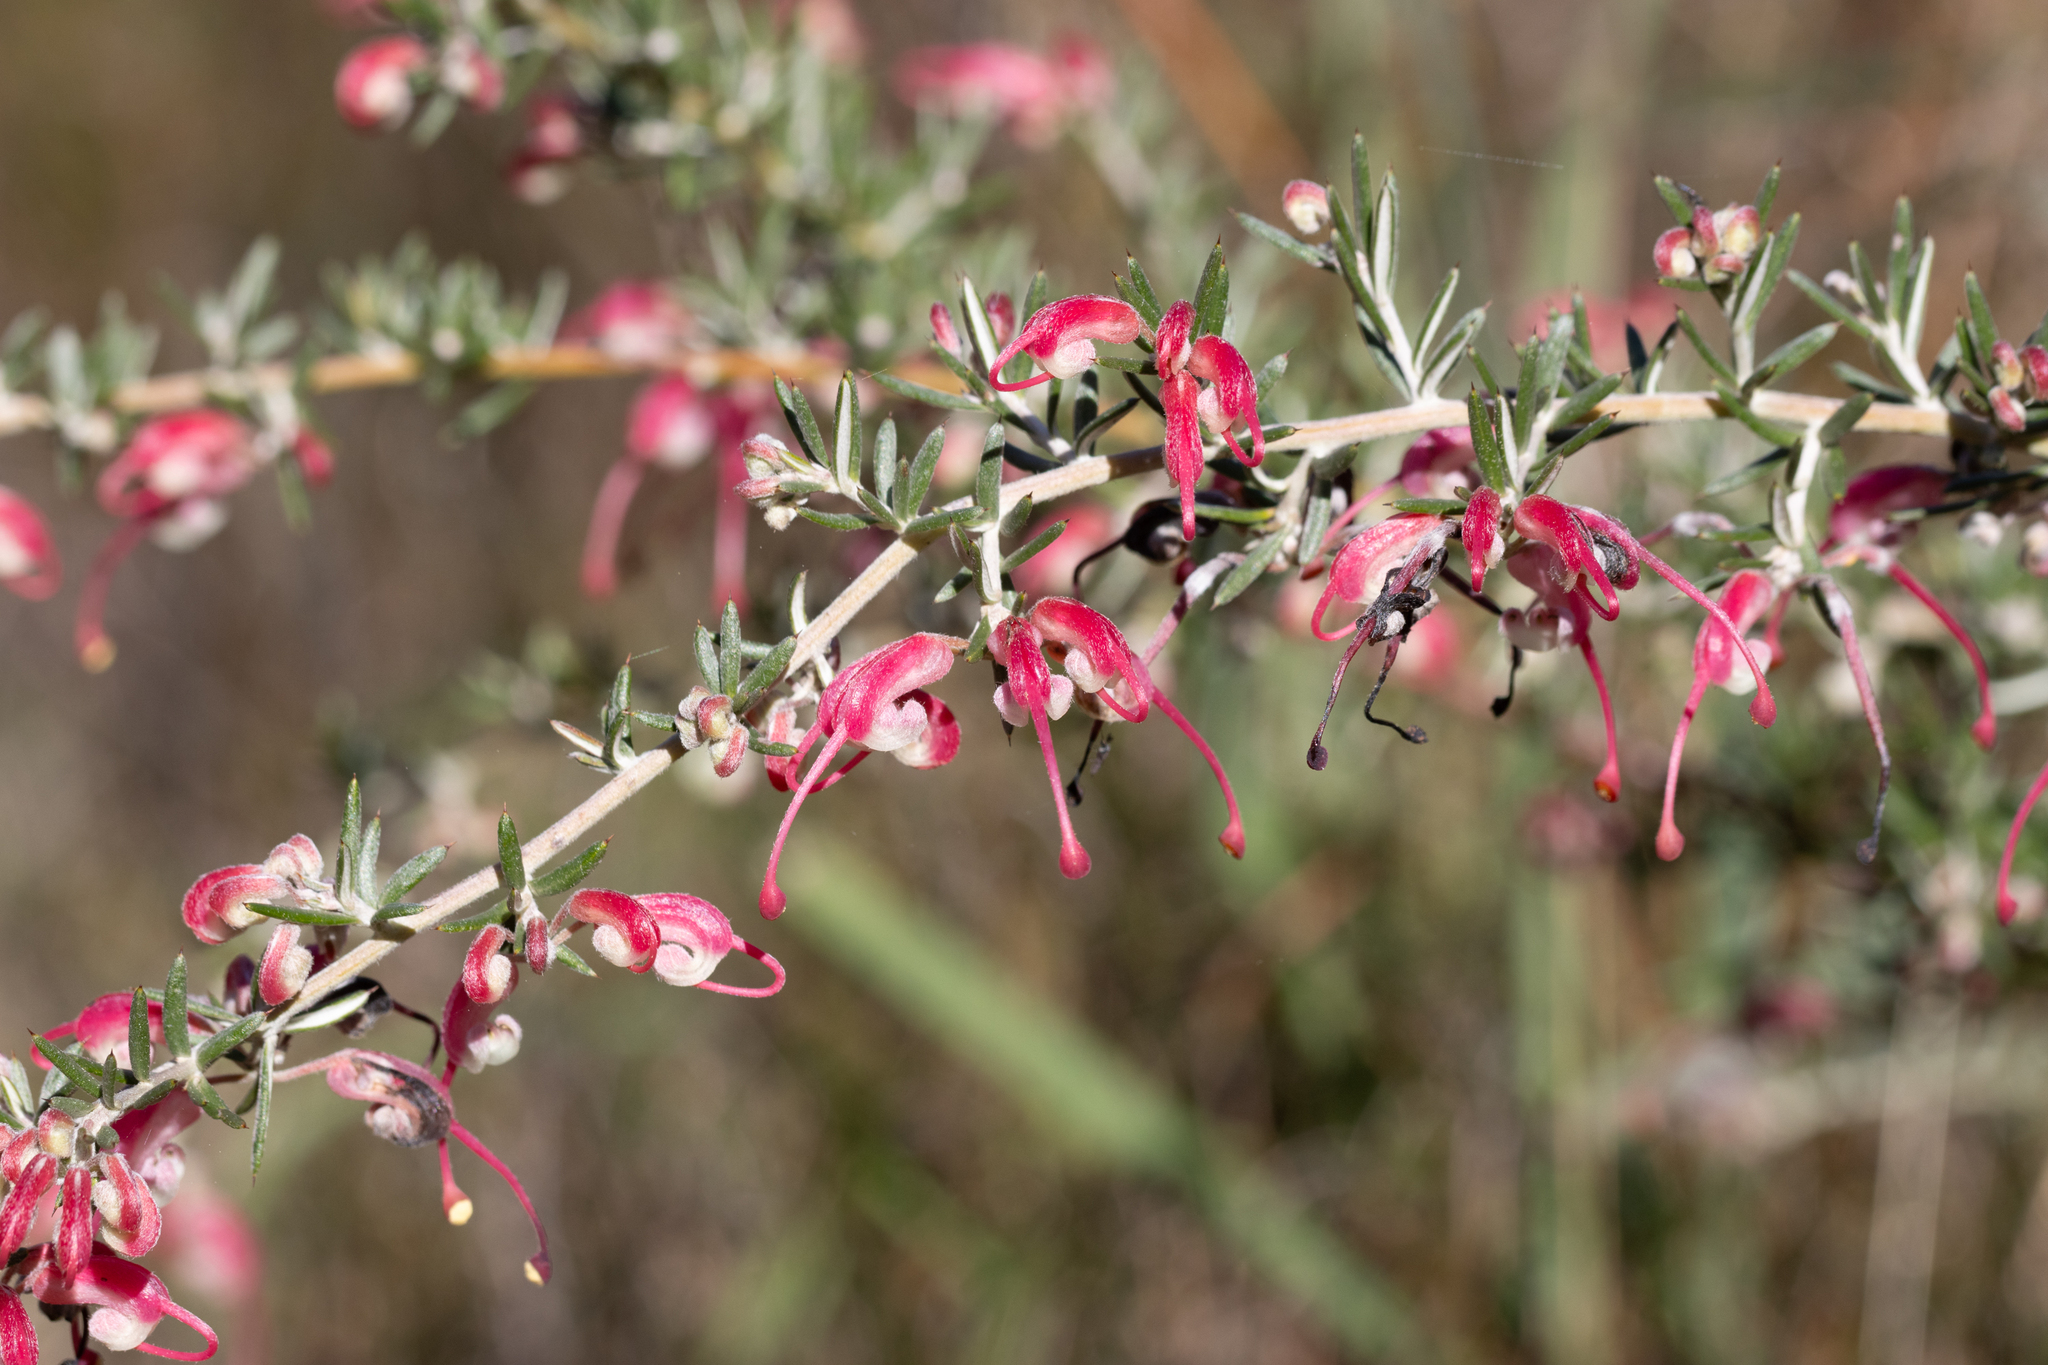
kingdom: Plantae
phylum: Tracheophyta
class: Magnoliopsida
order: Proteales
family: Proteaceae
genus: Grevillea
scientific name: Grevillea lavandulacea
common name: Lavender grevillea
